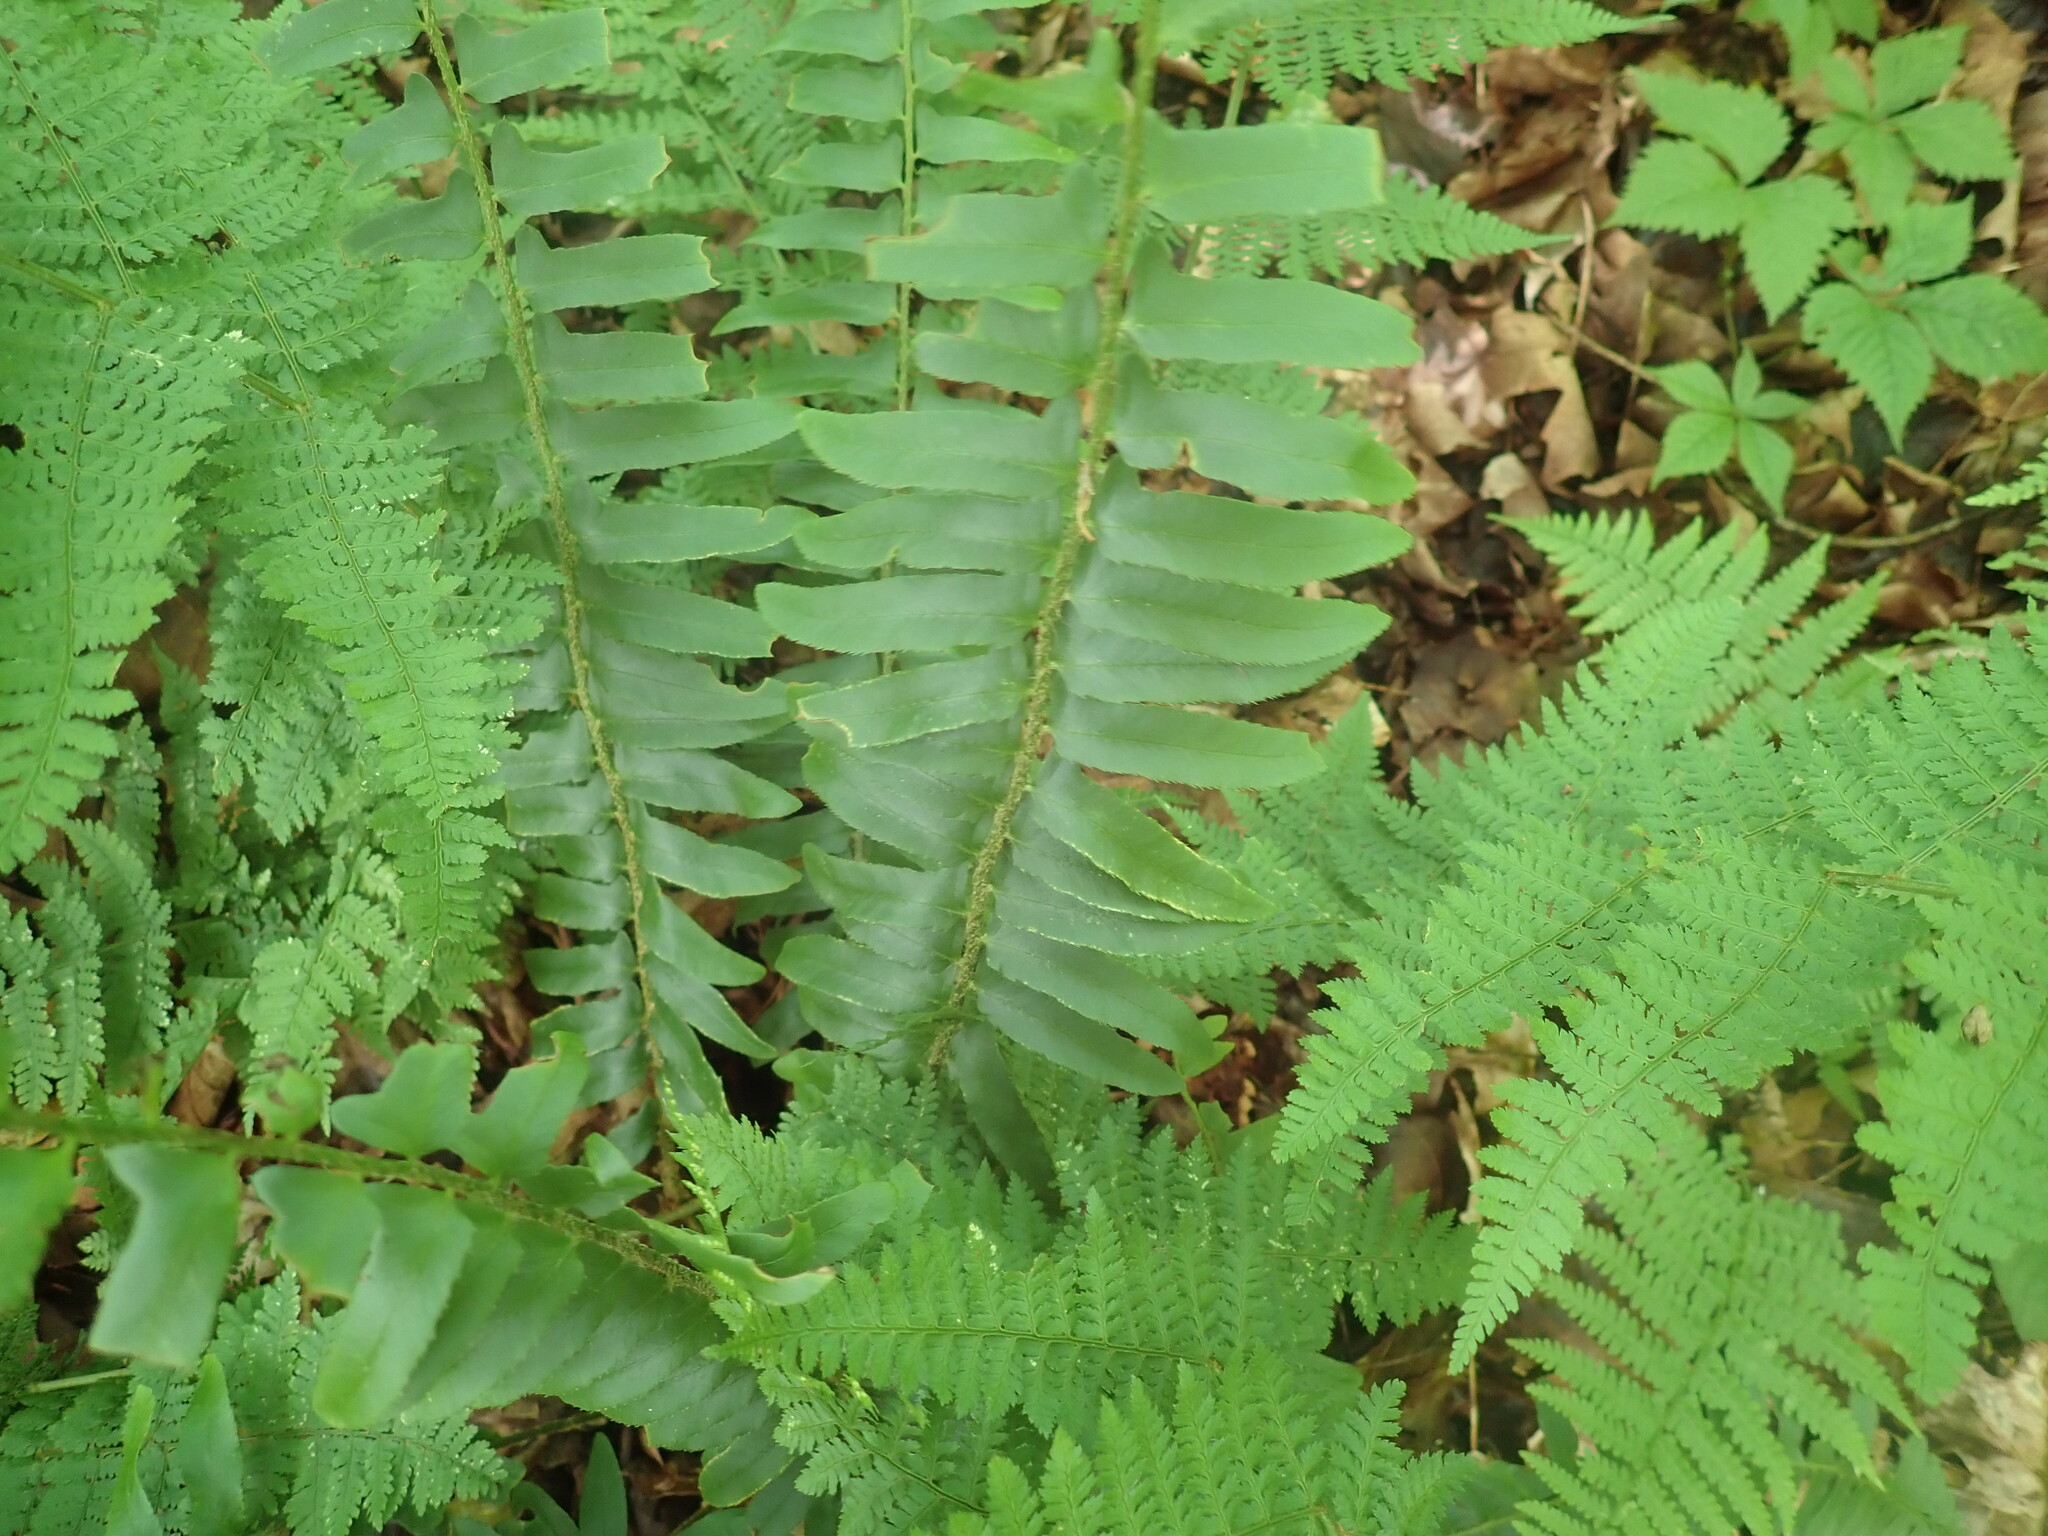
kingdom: Plantae
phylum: Tracheophyta
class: Polypodiopsida
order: Polypodiales
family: Dryopteridaceae
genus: Polystichum
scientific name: Polystichum acrostichoides
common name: Christmas fern
